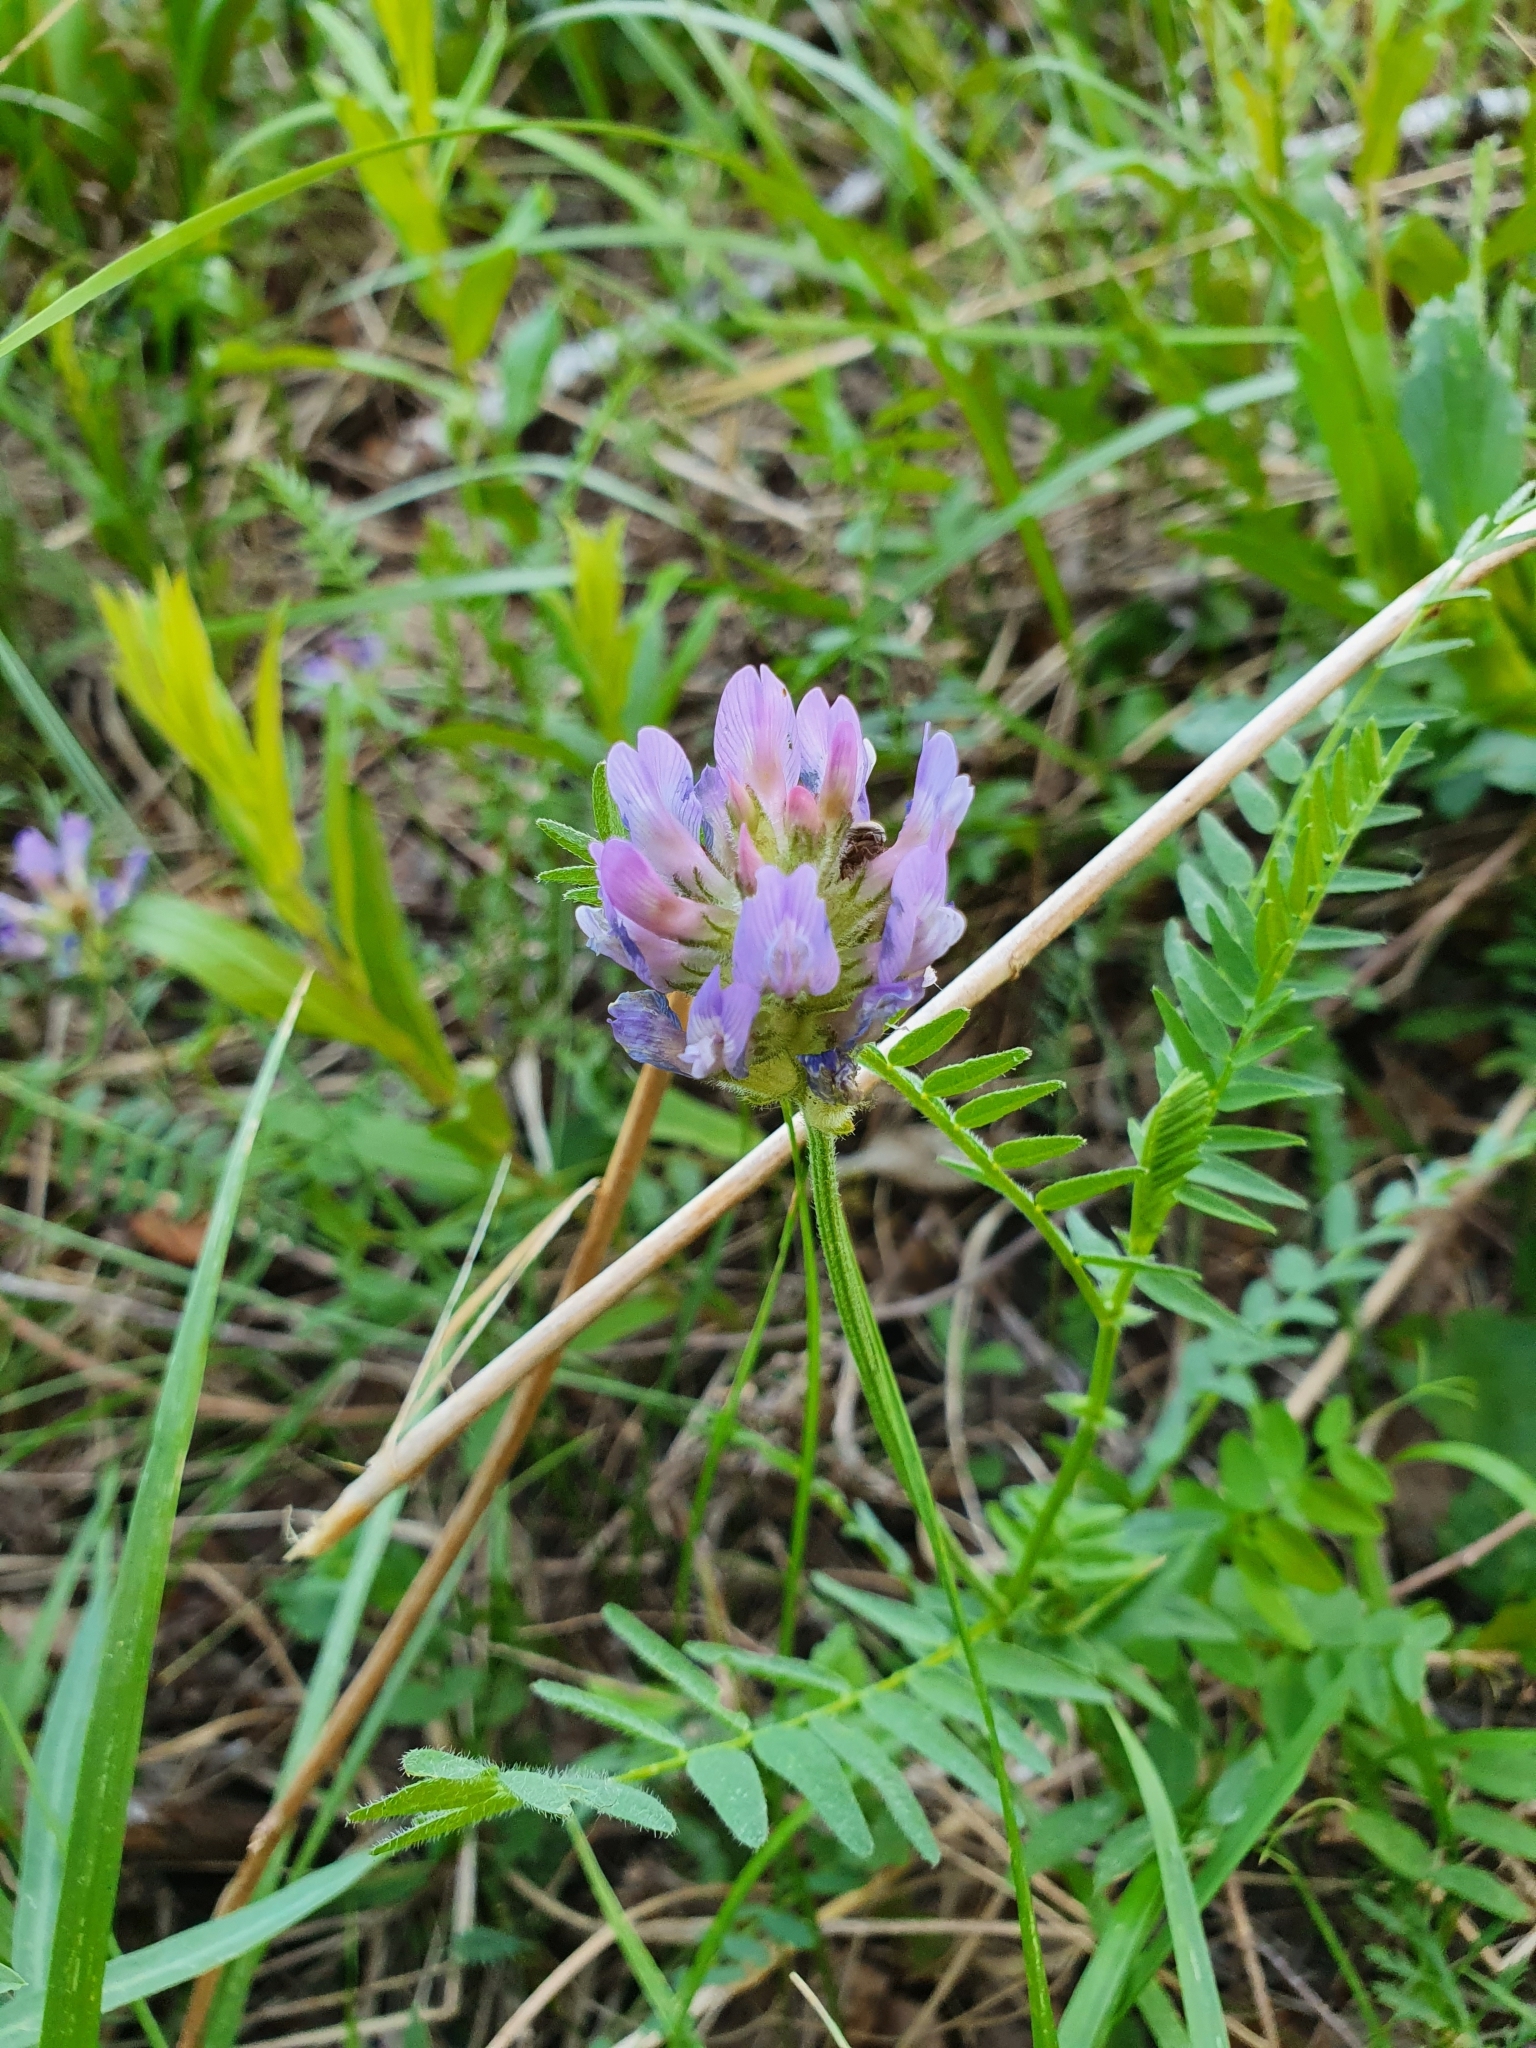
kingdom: Plantae
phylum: Tracheophyta
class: Magnoliopsida
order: Fabales
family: Fabaceae
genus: Astragalus
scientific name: Astragalus danicus
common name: Purple milk-vetch
